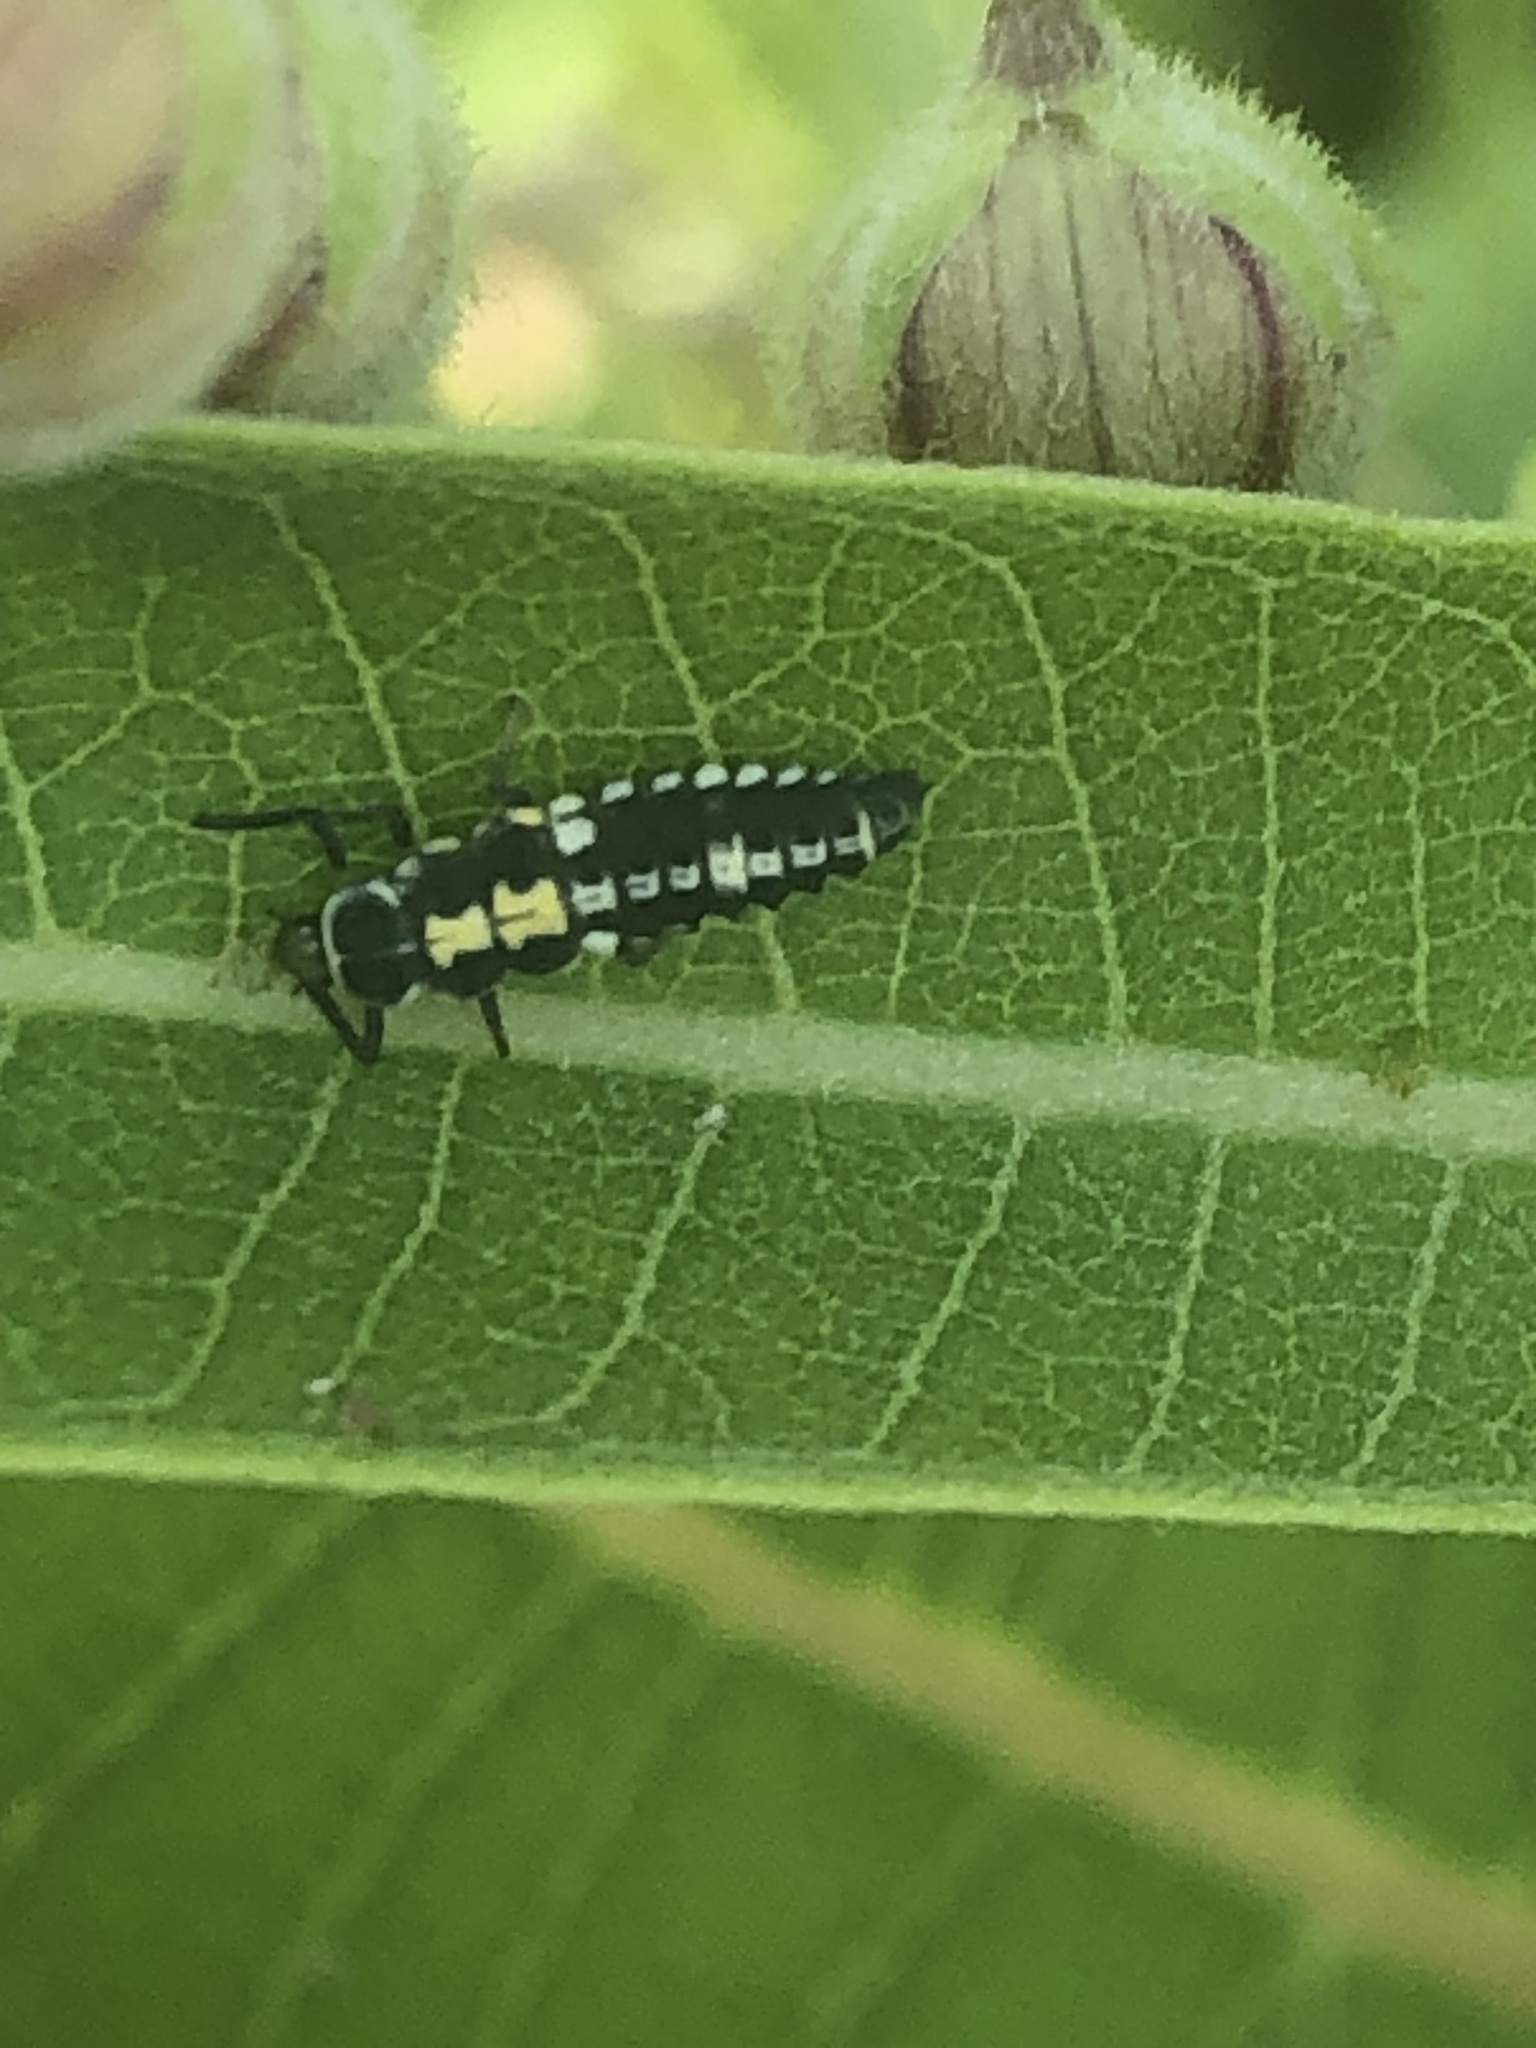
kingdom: Animalia
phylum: Arthropoda
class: Insecta
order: Coleoptera
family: Coccinellidae
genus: Propylaea
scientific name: Propylaea quatuordecimpunctata
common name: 14-spotted ladybird beetle
